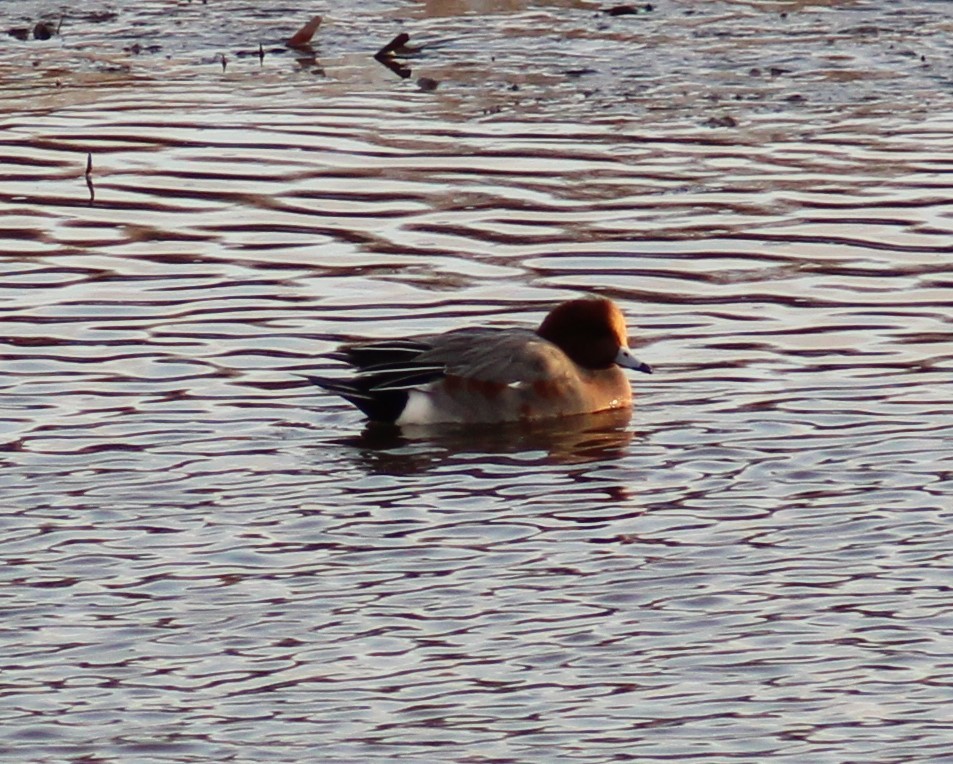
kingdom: Animalia
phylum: Chordata
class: Aves
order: Anseriformes
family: Anatidae
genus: Mareca
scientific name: Mareca penelope
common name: Eurasian wigeon
